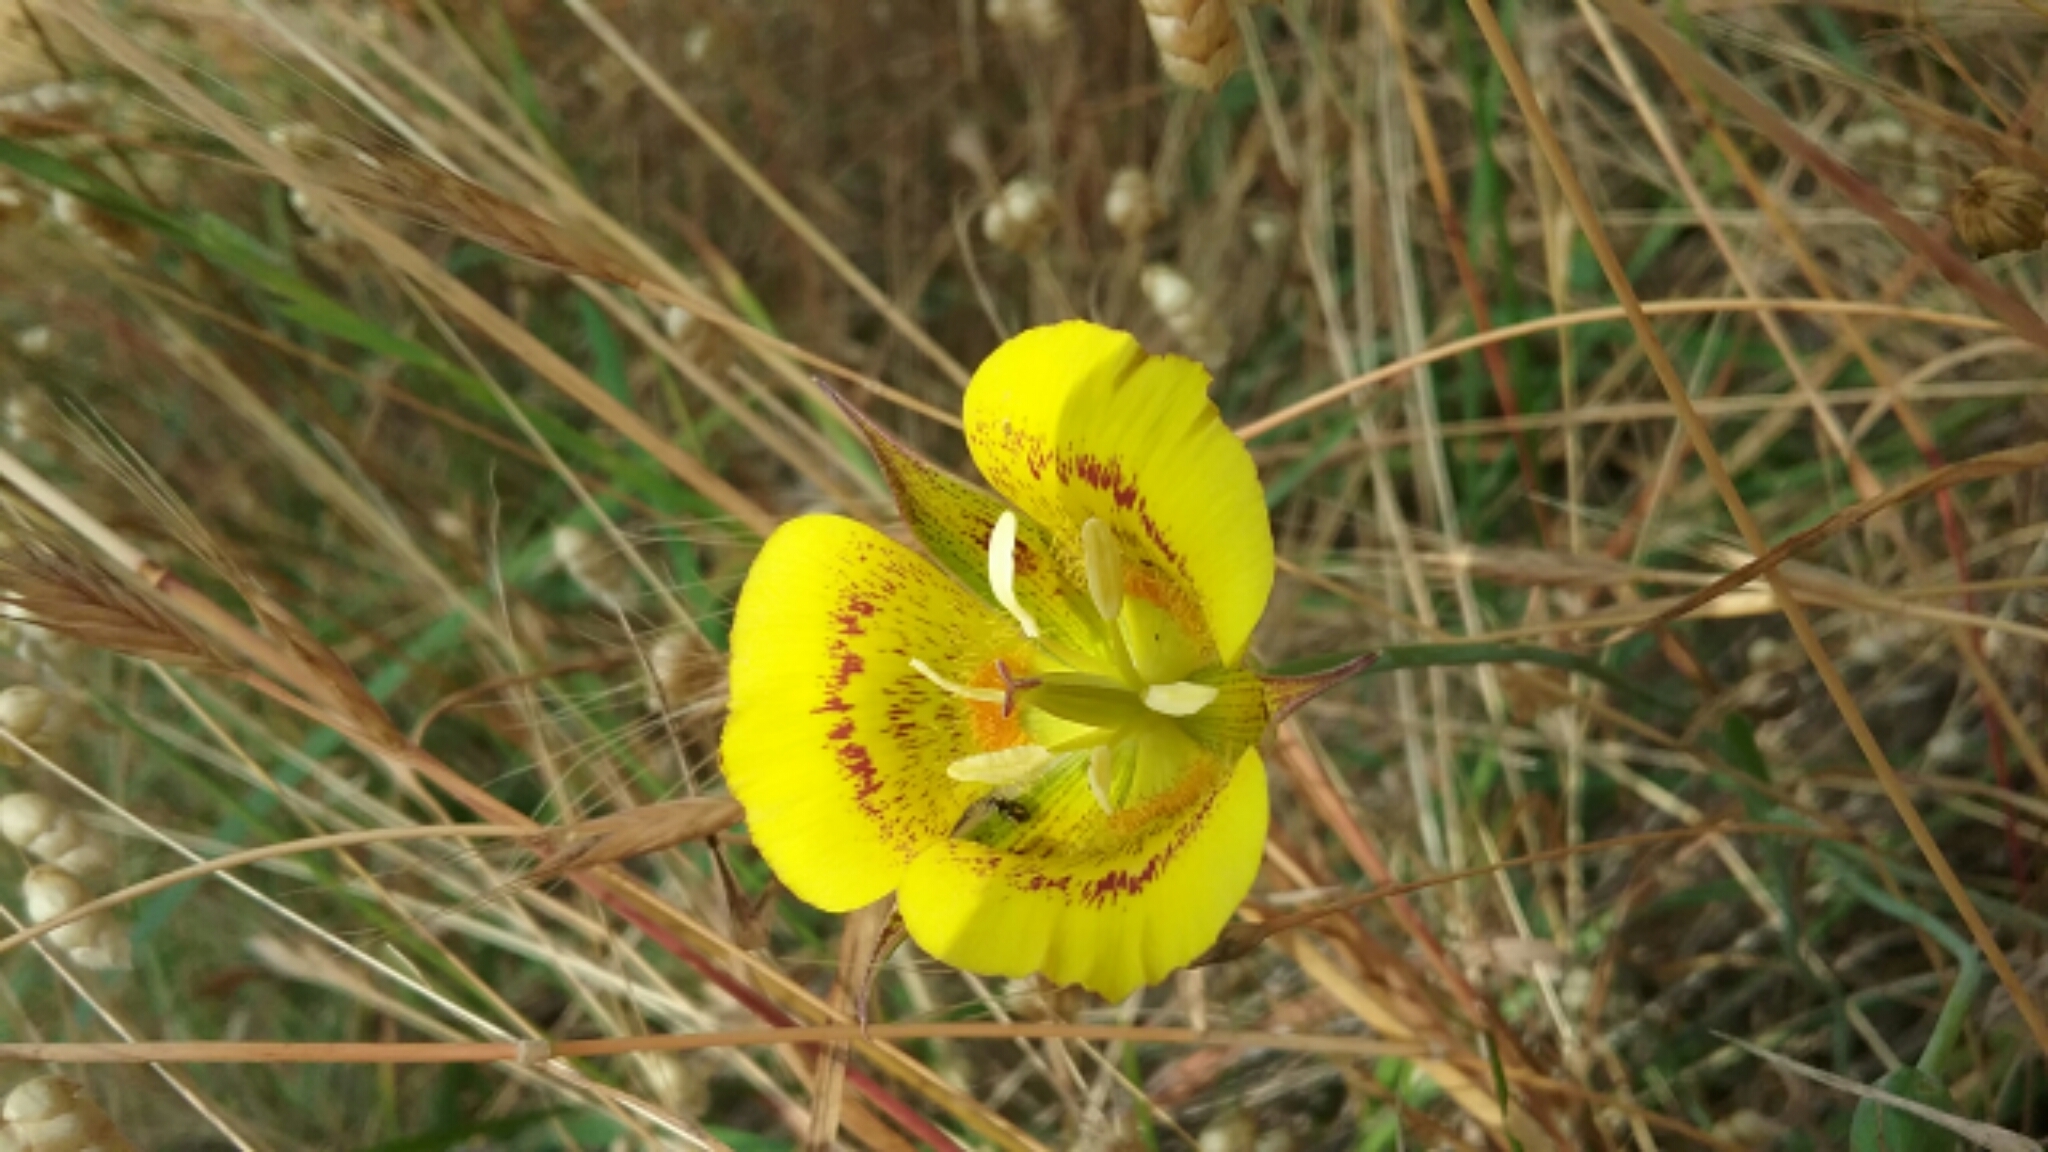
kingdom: Plantae
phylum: Tracheophyta
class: Liliopsida
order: Liliales
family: Liliaceae
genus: Calochortus
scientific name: Calochortus luteus
